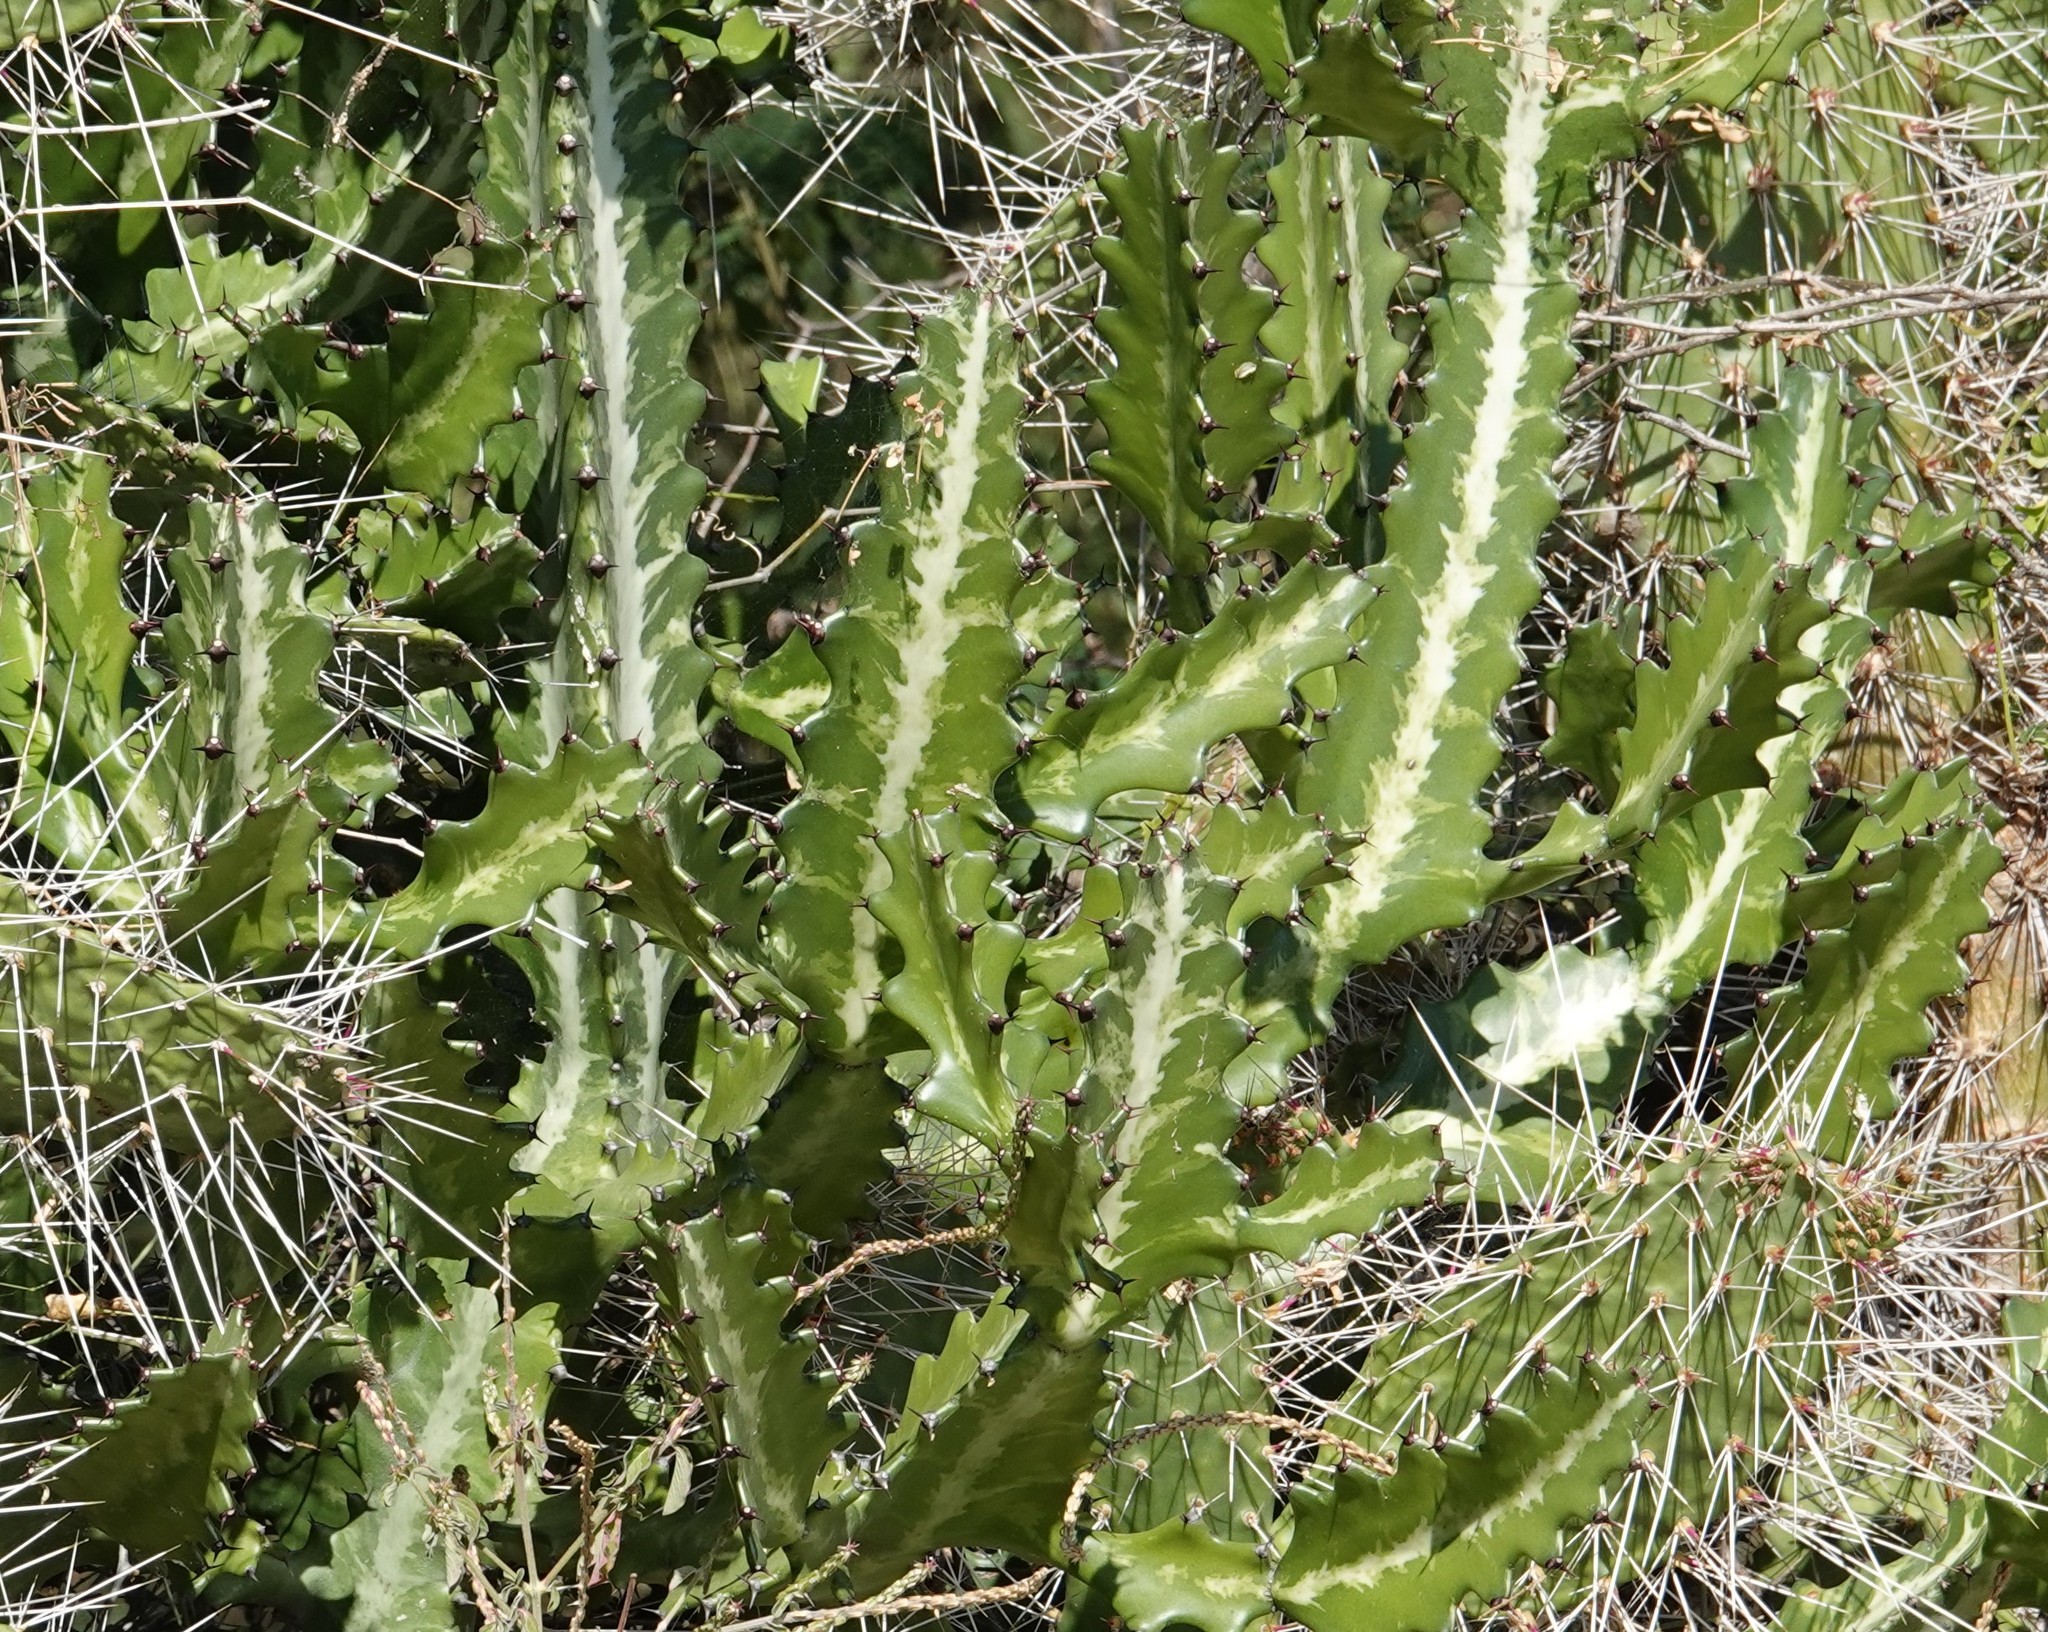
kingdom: Plantae
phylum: Tracheophyta
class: Magnoliopsida
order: Malpighiales
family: Euphorbiaceae
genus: Euphorbia
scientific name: Euphorbia lactea
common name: Mottled spurge
